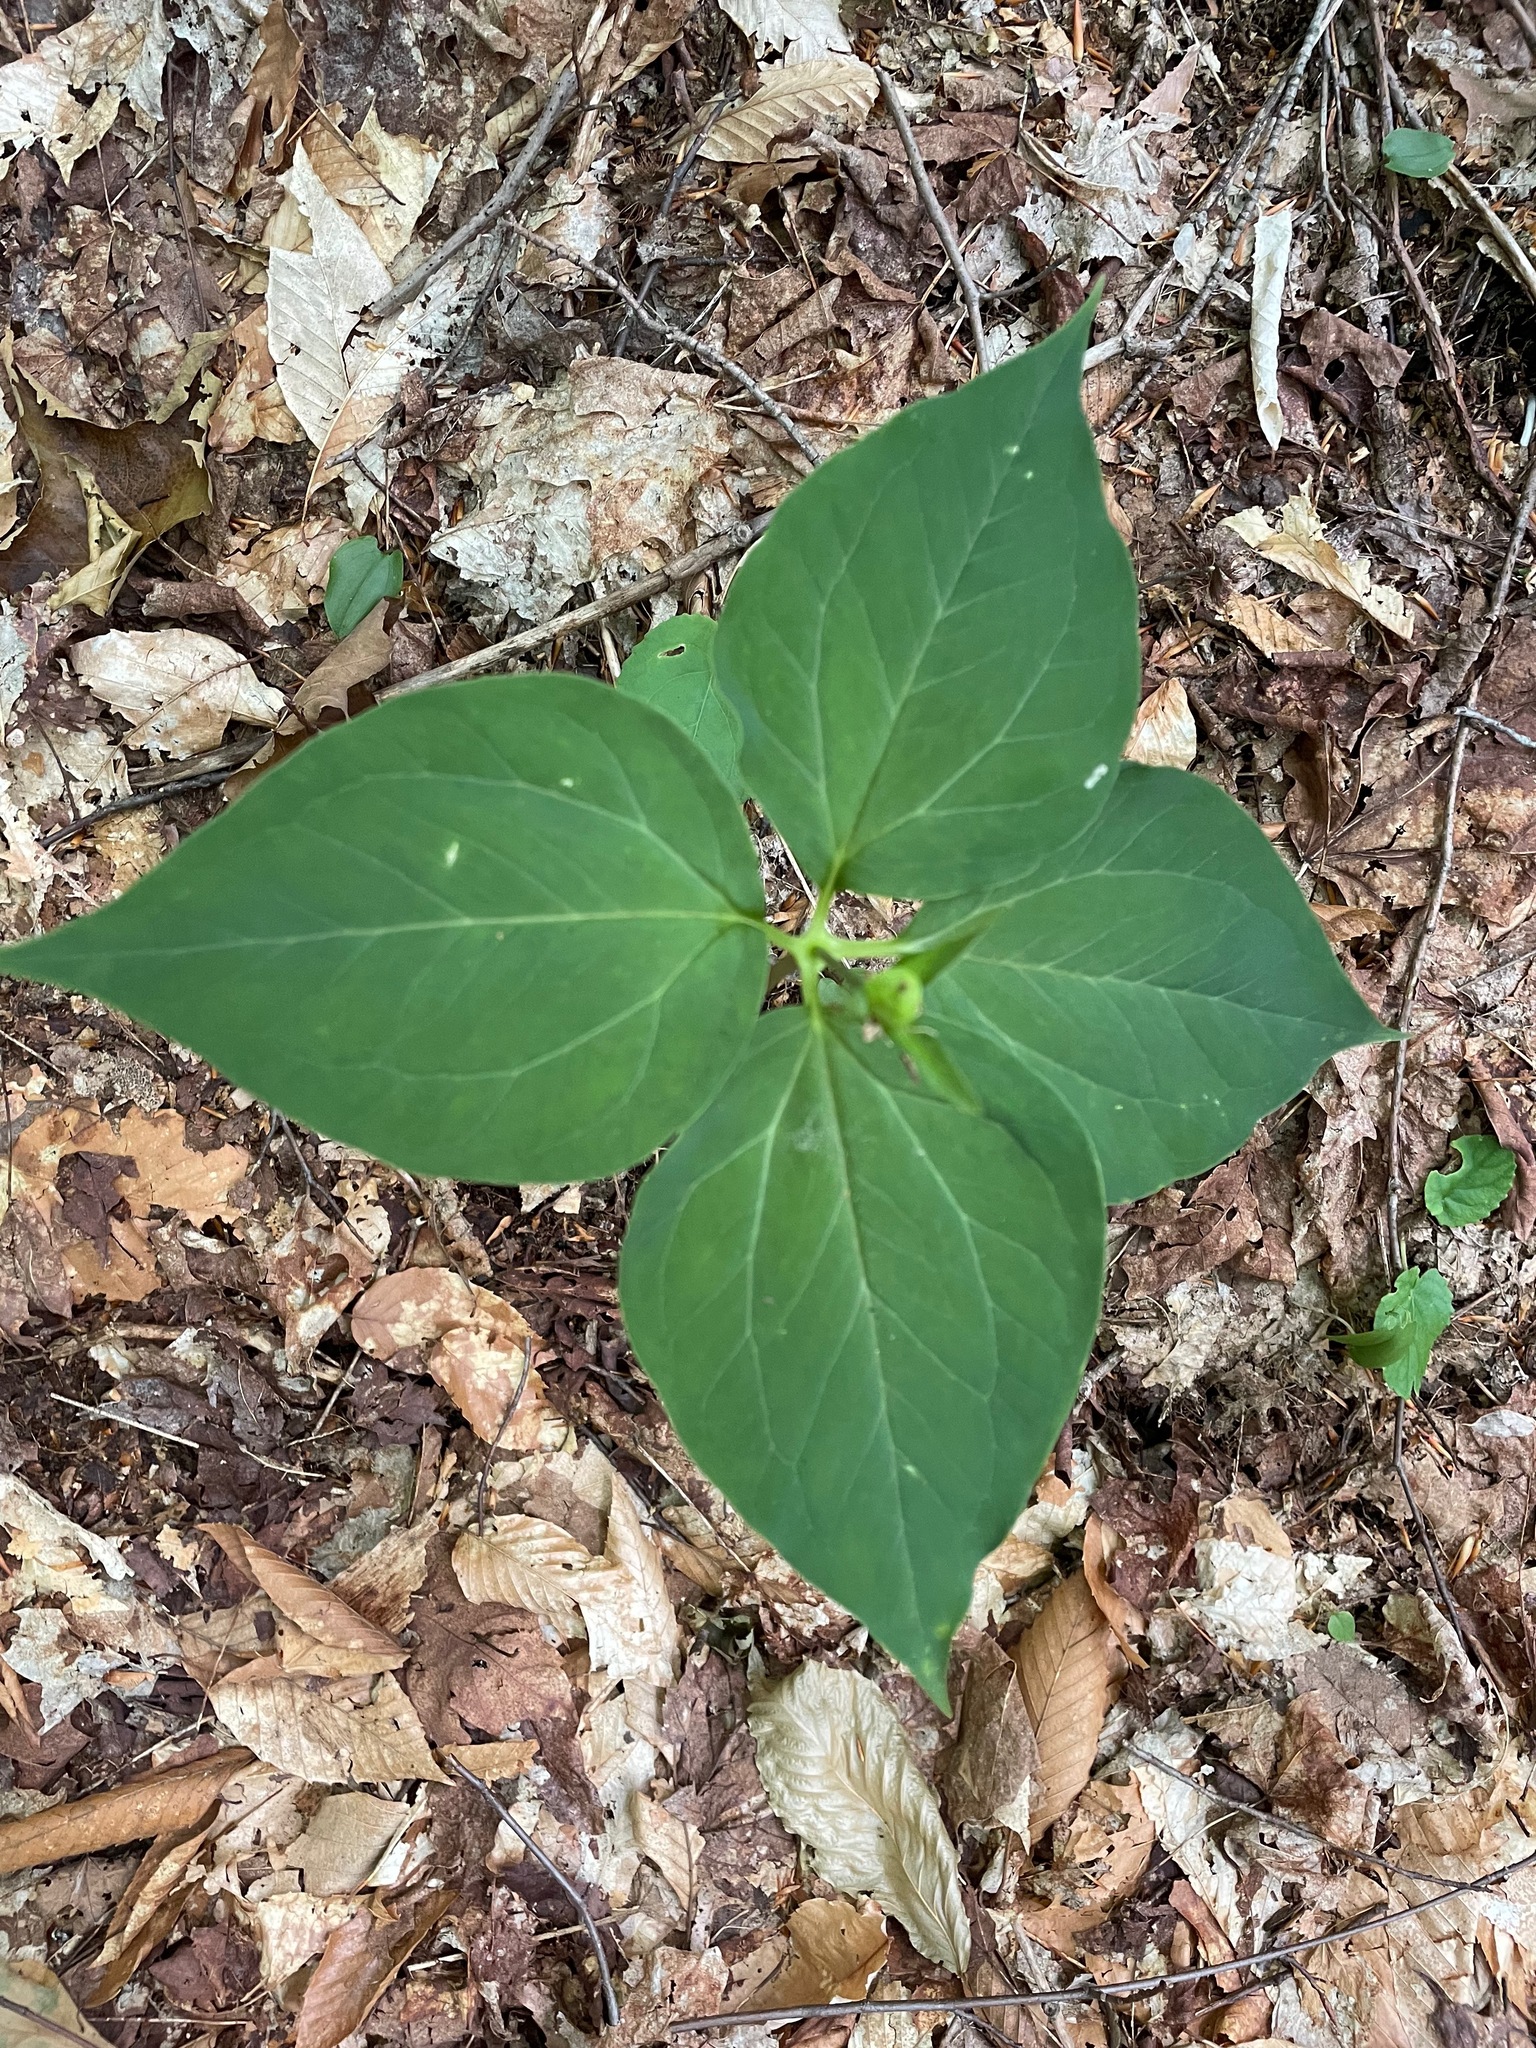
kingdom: Plantae
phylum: Tracheophyta
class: Liliopsida
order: Liliales
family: Melanthiaceae
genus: Trillium
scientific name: Trillium undulatum
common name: Paint trillium
